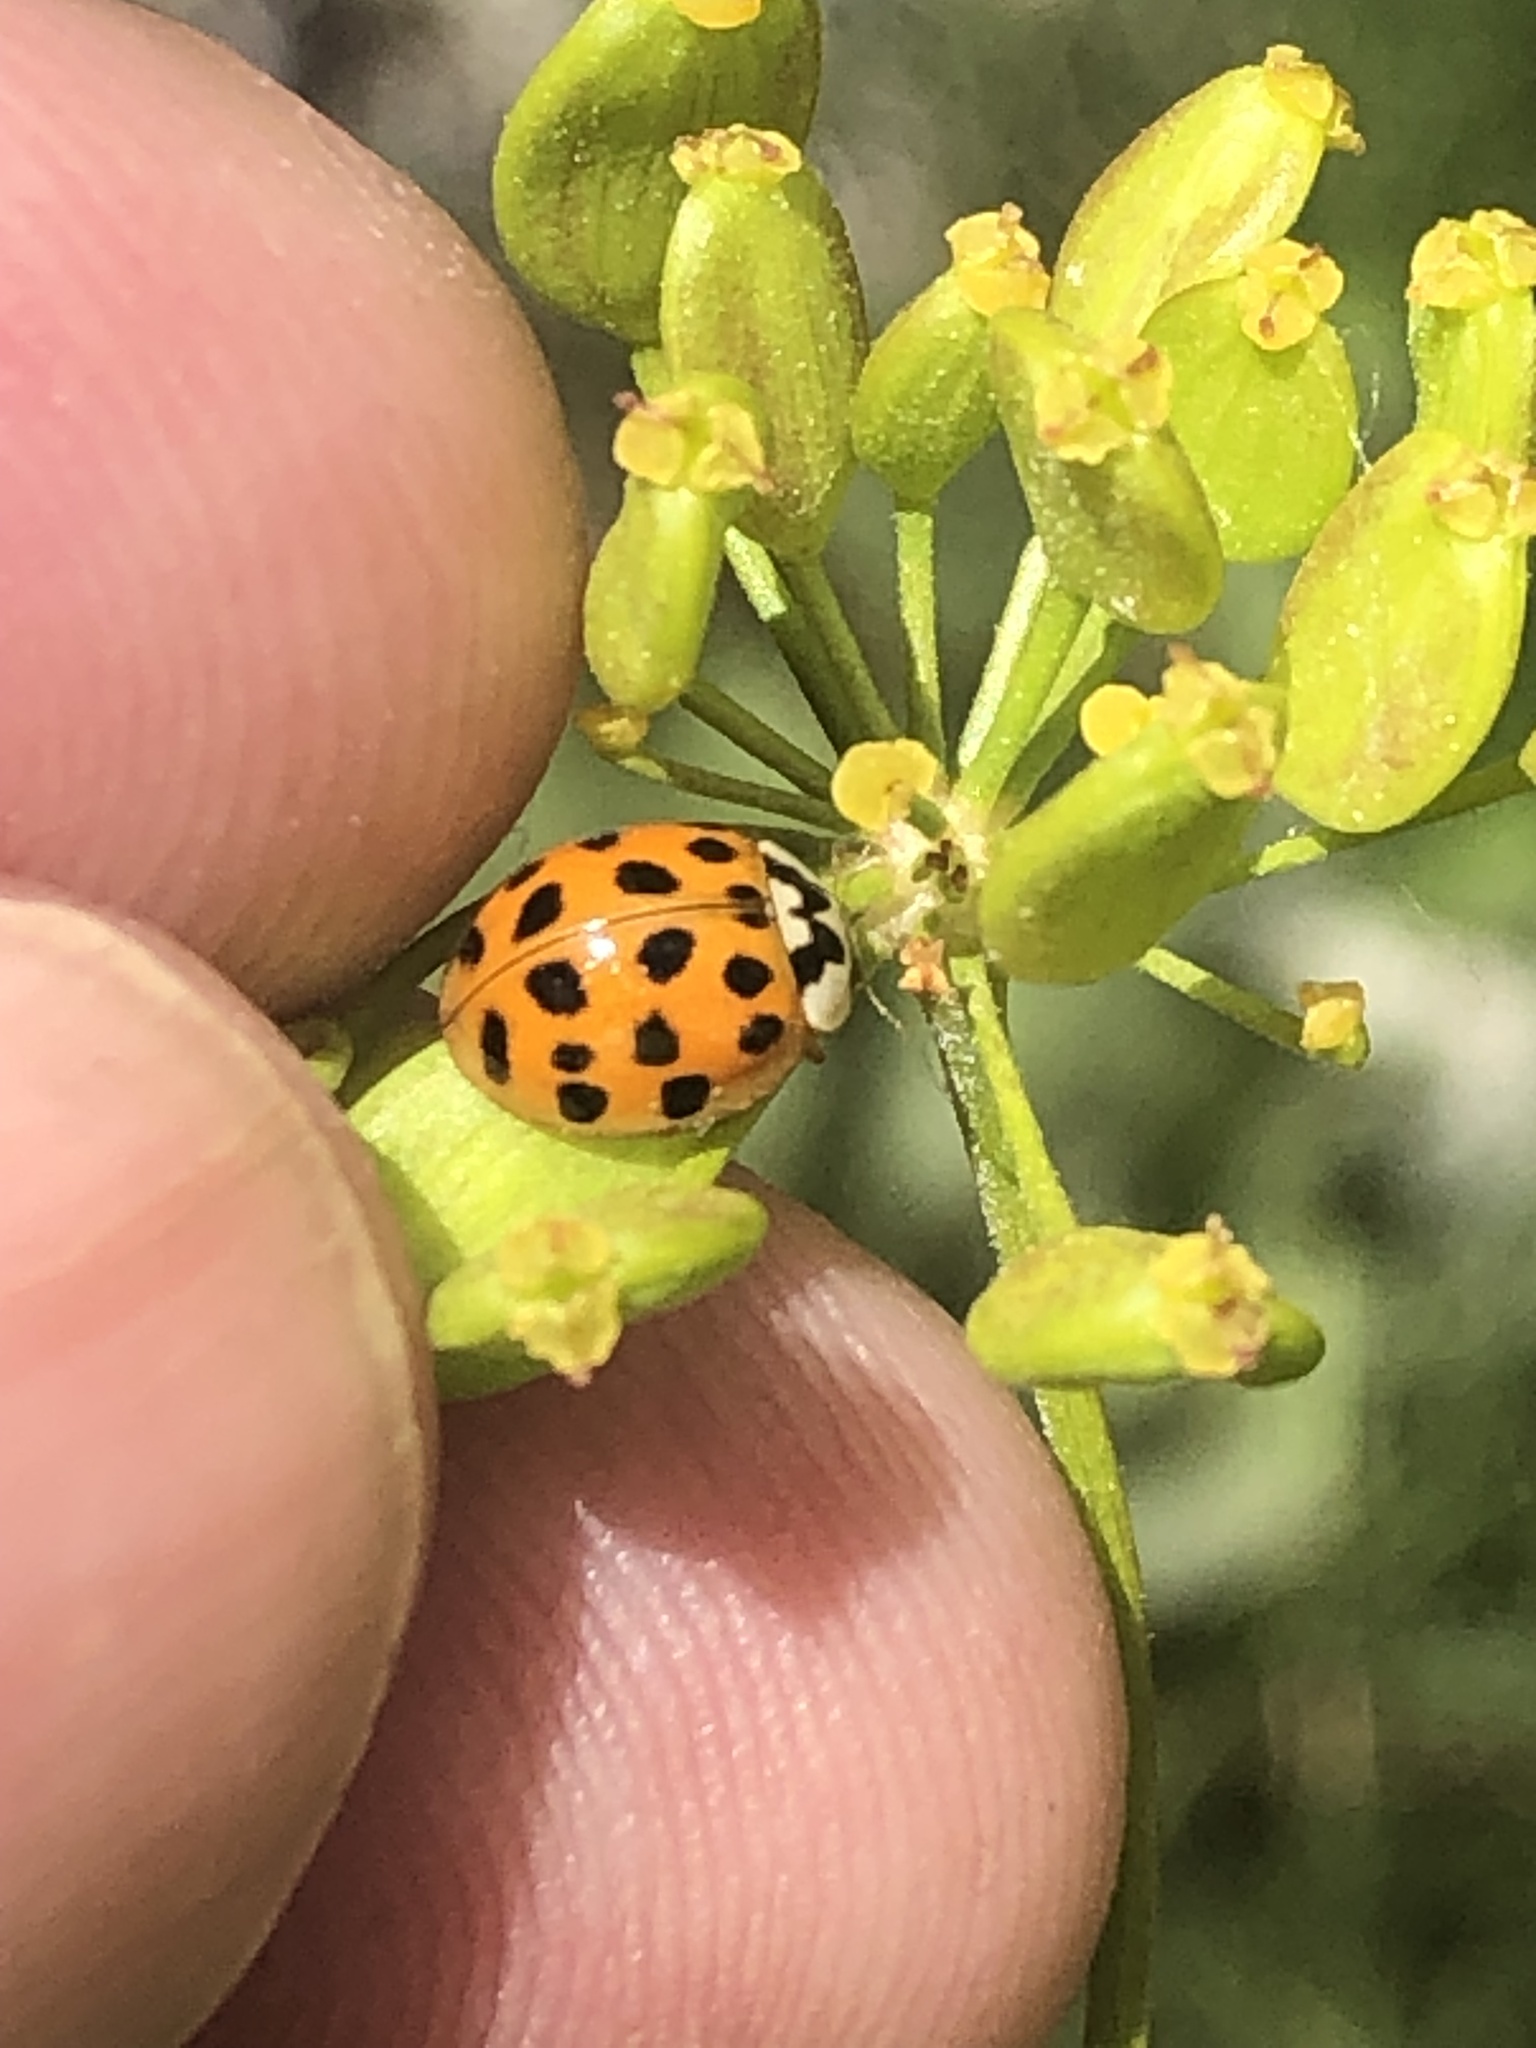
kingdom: Animalia
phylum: Arthropoda
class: Insecta
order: Coleoptera
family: Coccinellidae
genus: Harmonia
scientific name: Harmonia axyridis
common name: Harlequin ladybird
